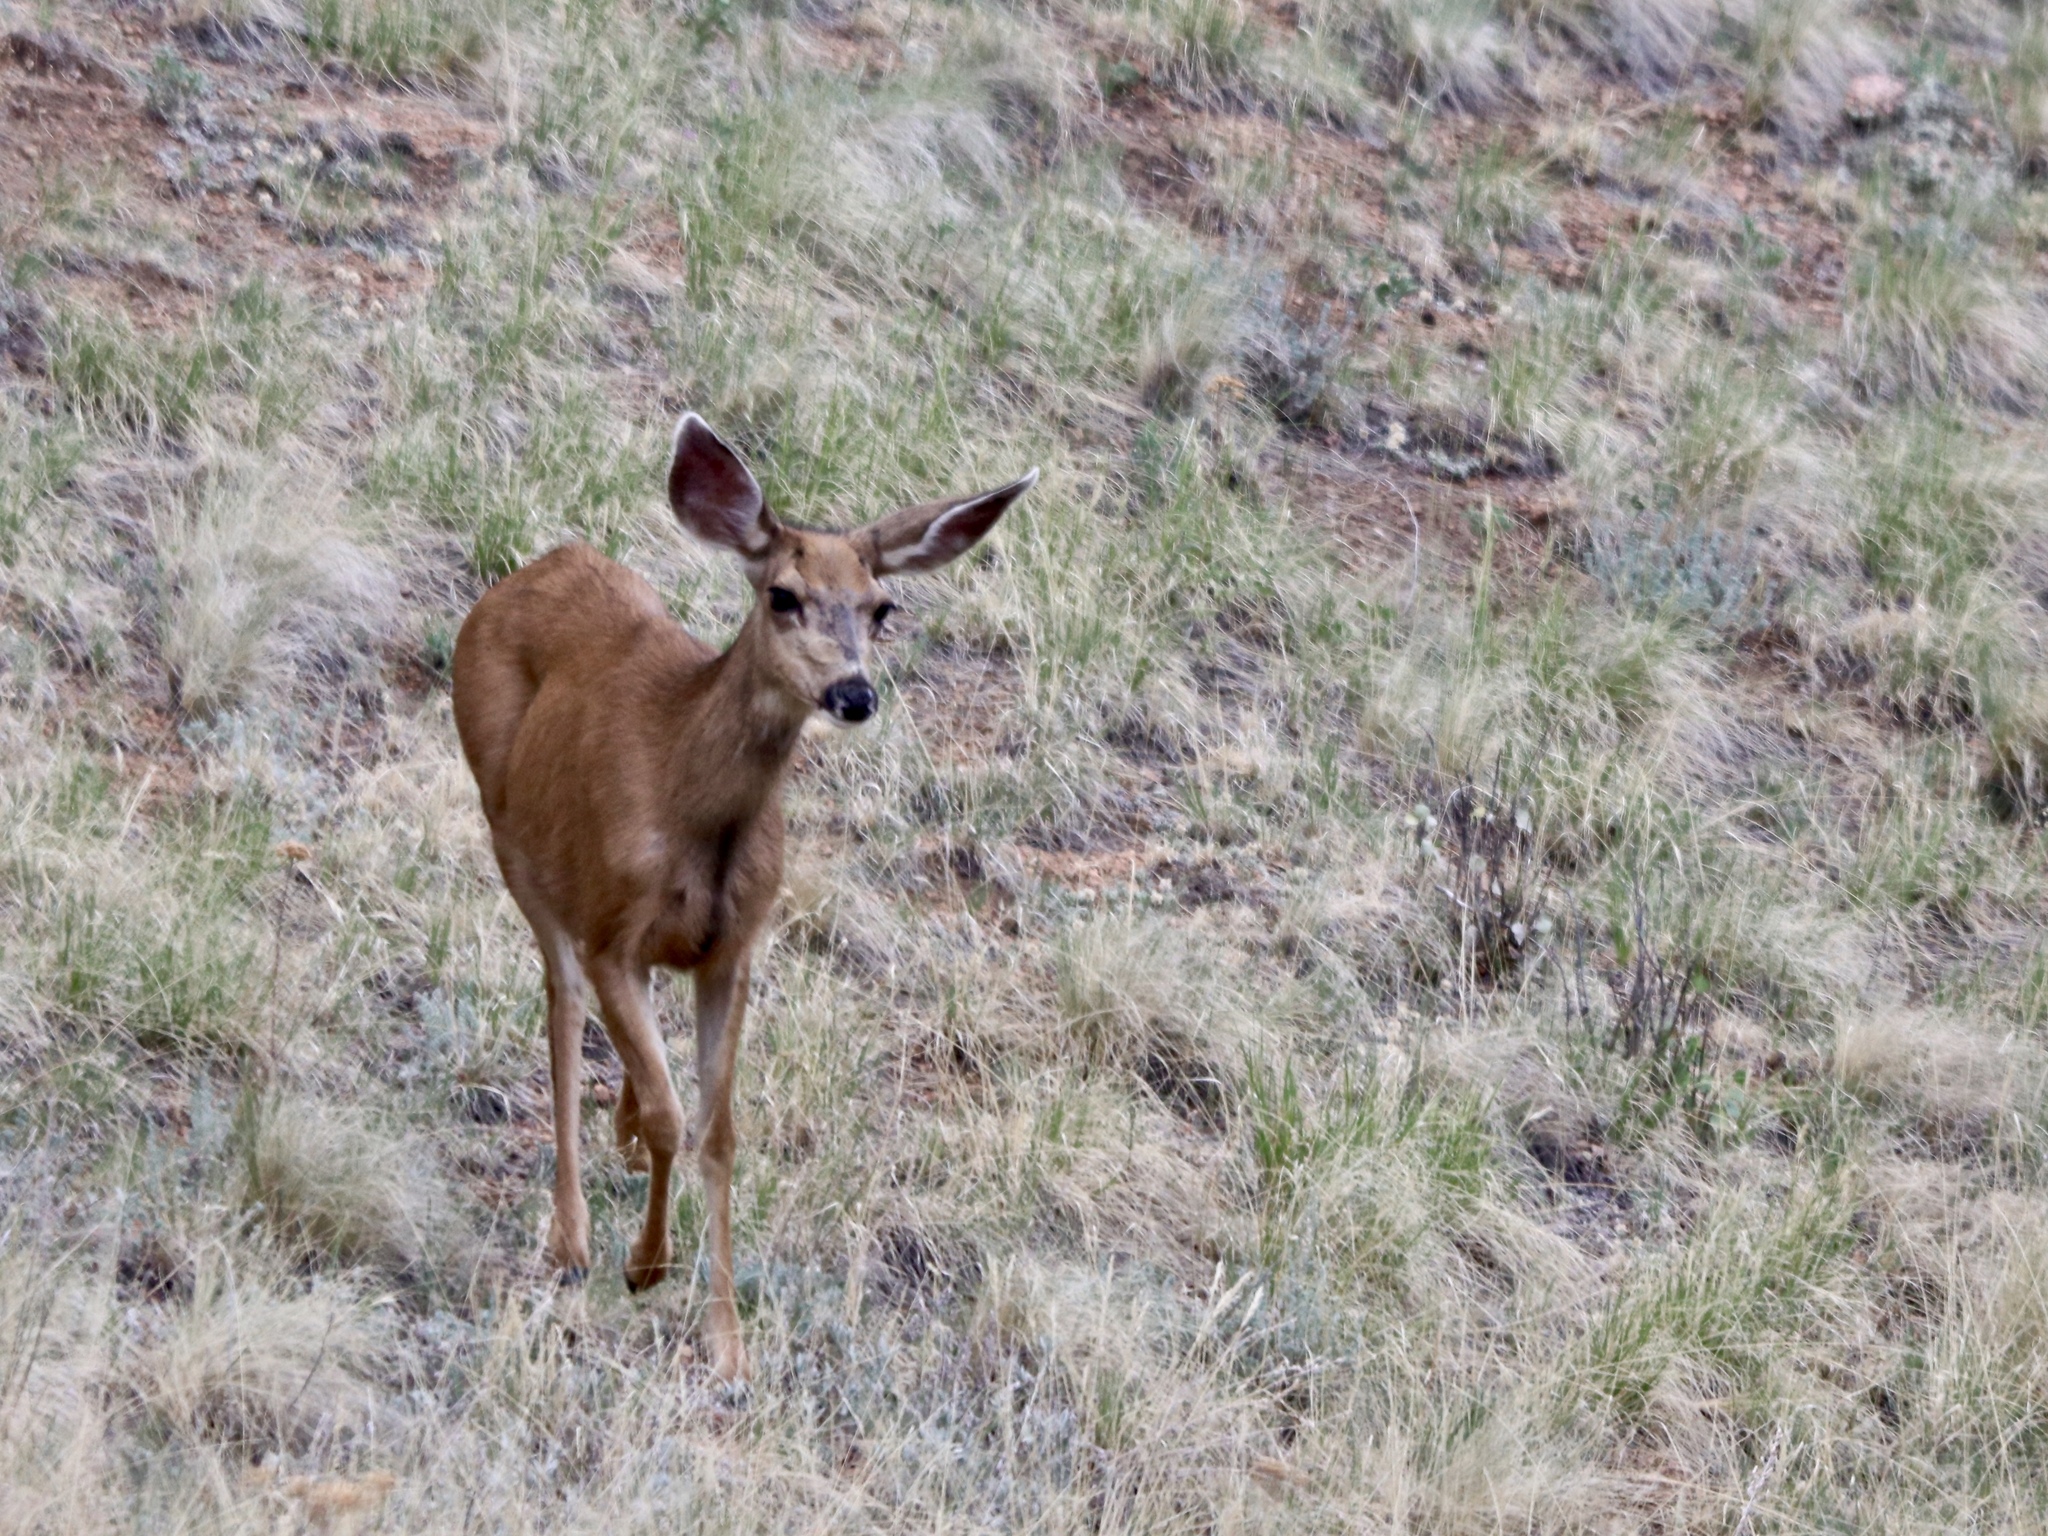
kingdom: Animalia
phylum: Chordata
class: Mammalia
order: Artiodactyla
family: Cervidae
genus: Odocoileus
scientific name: Odocoileus hemionus
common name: Mule deer
